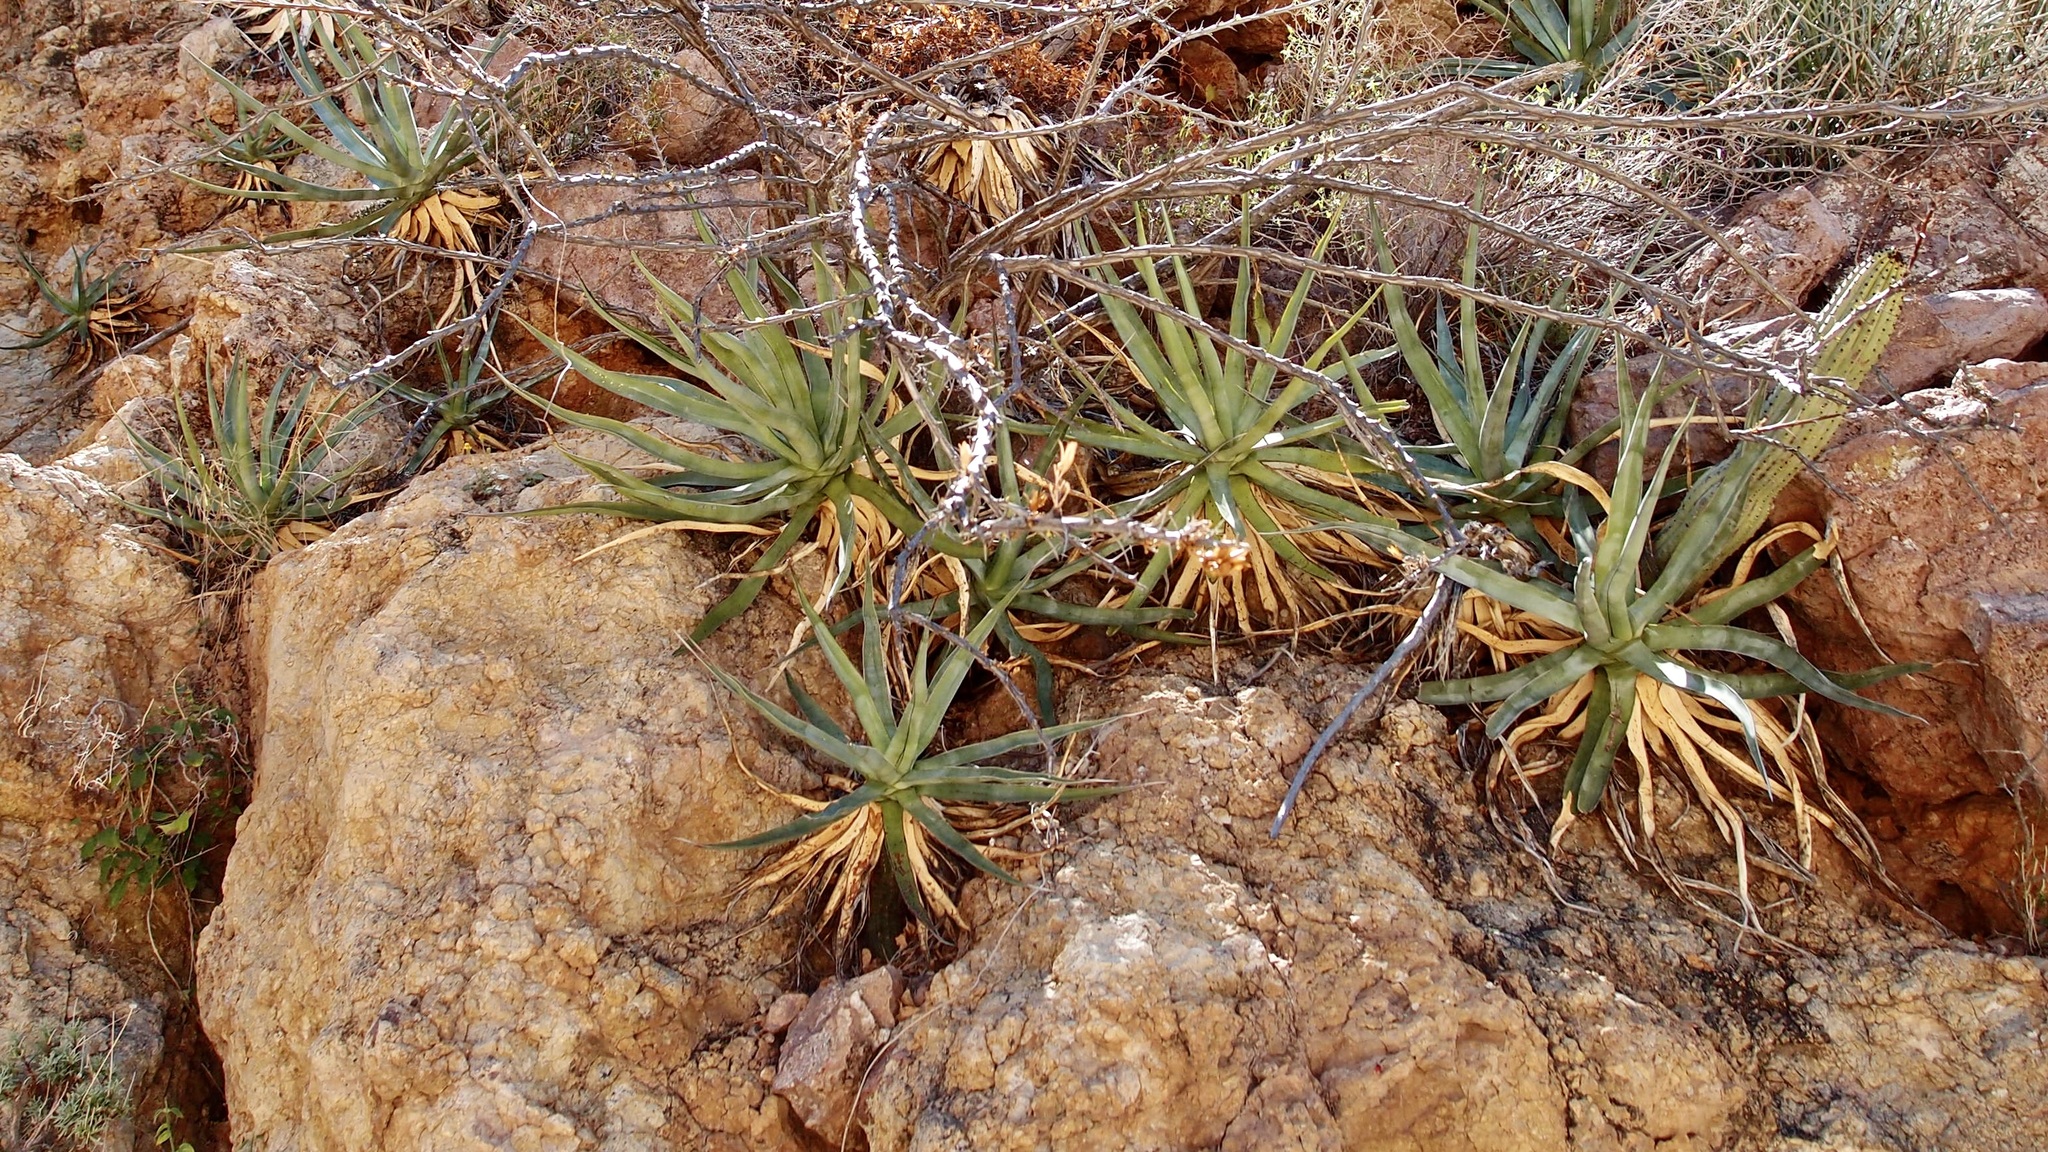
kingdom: Plantae
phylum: Tracheophyta
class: Liliopsida
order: Asparagales
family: Asparagaceae
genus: Agave
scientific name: Agave chrysoglossa
